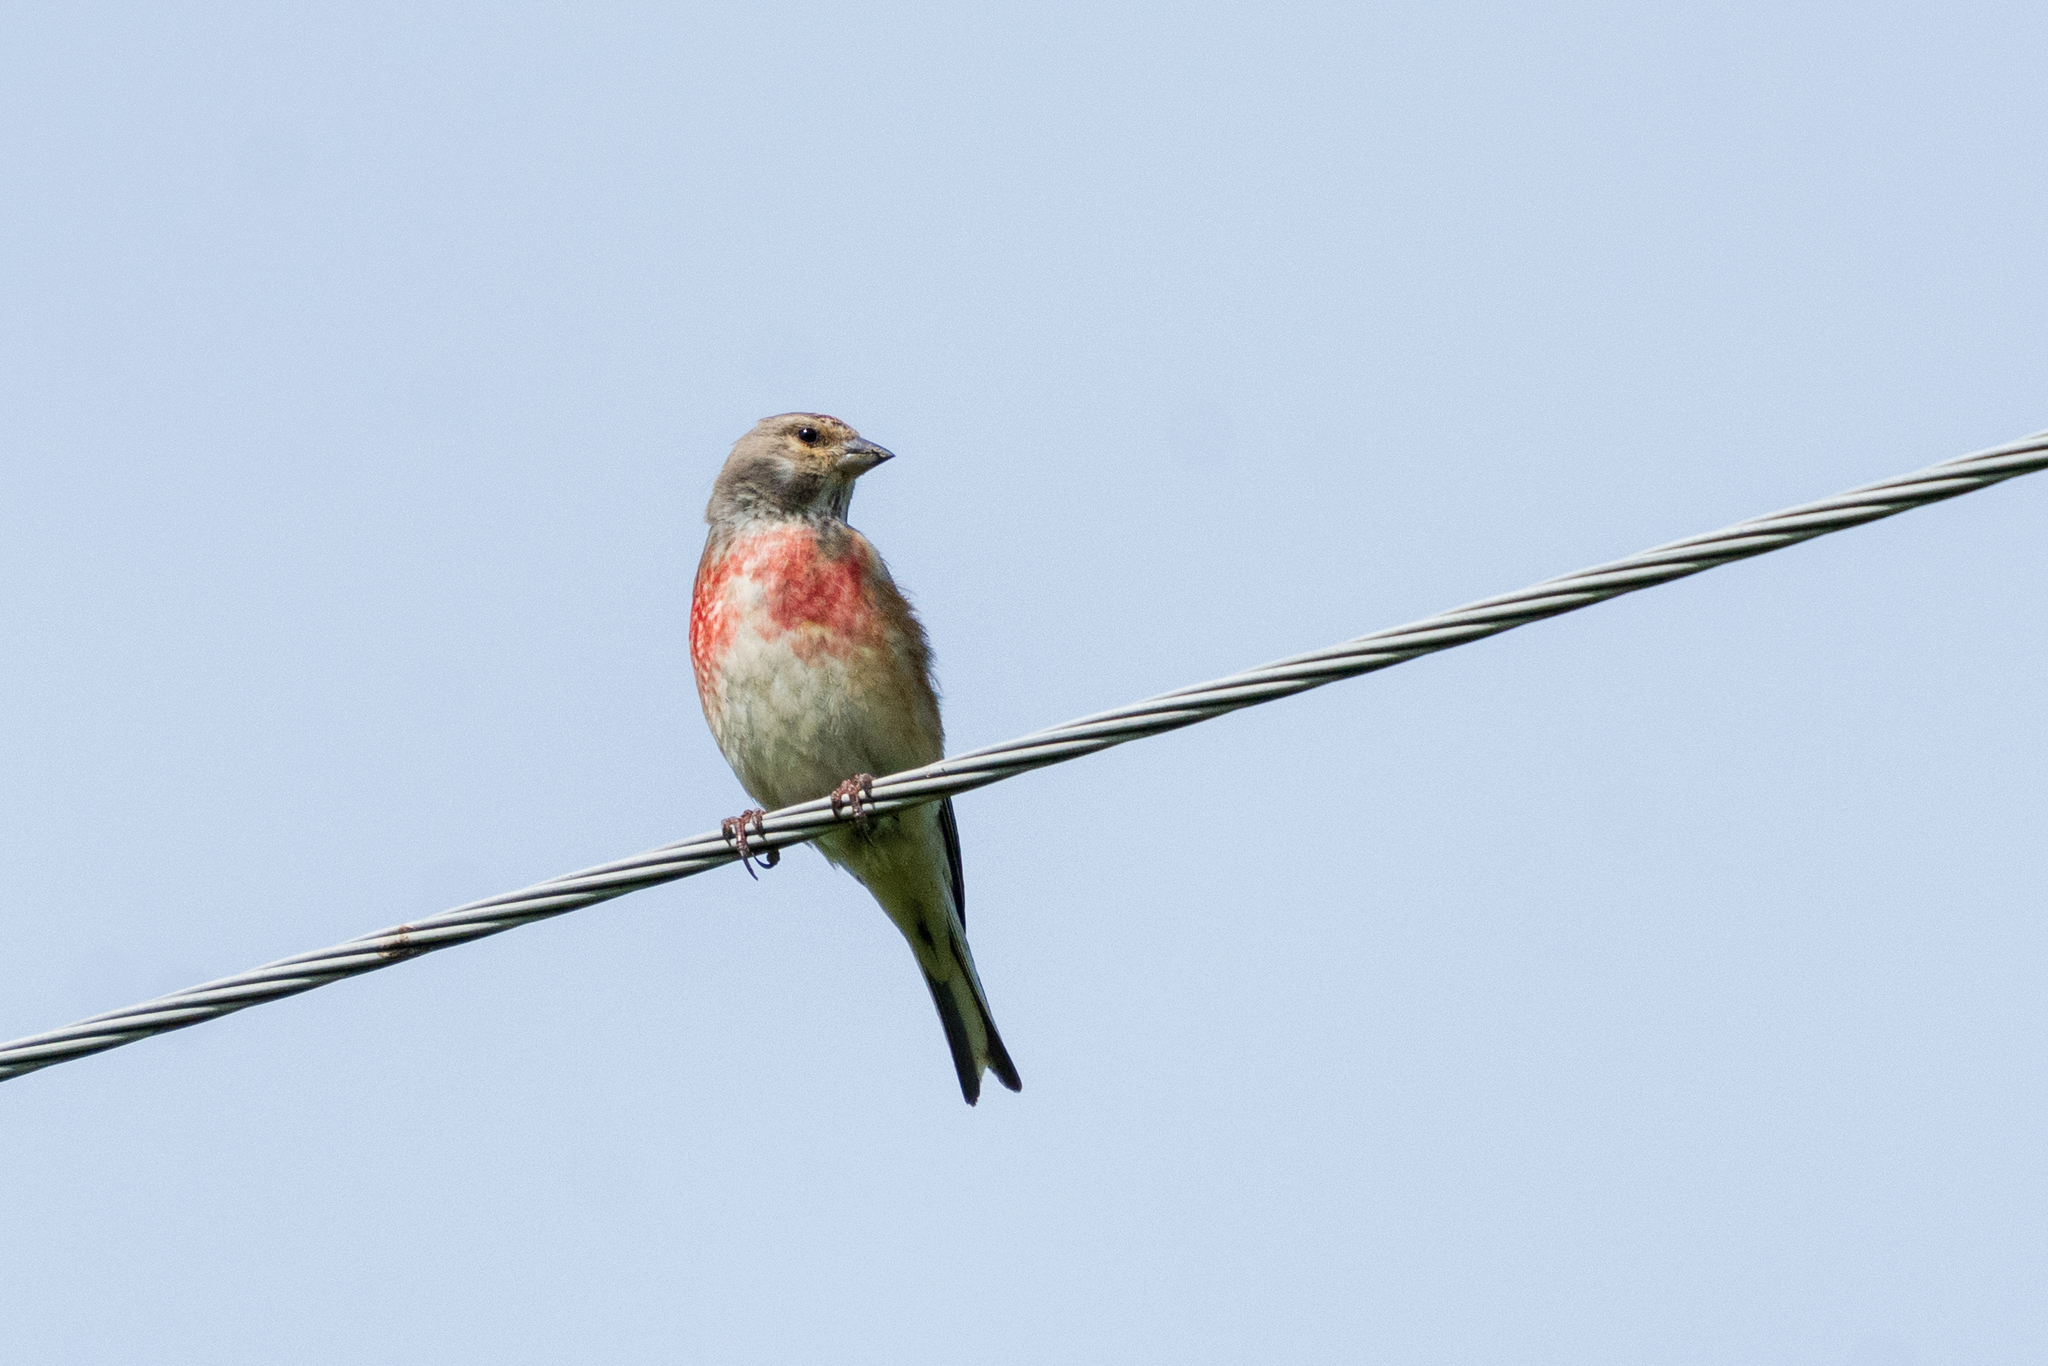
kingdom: Animalia
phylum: Chordata
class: Aves
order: Passeriformes
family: Fringillidae
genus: Linaria
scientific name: Linaria cannabina
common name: Common linnet
